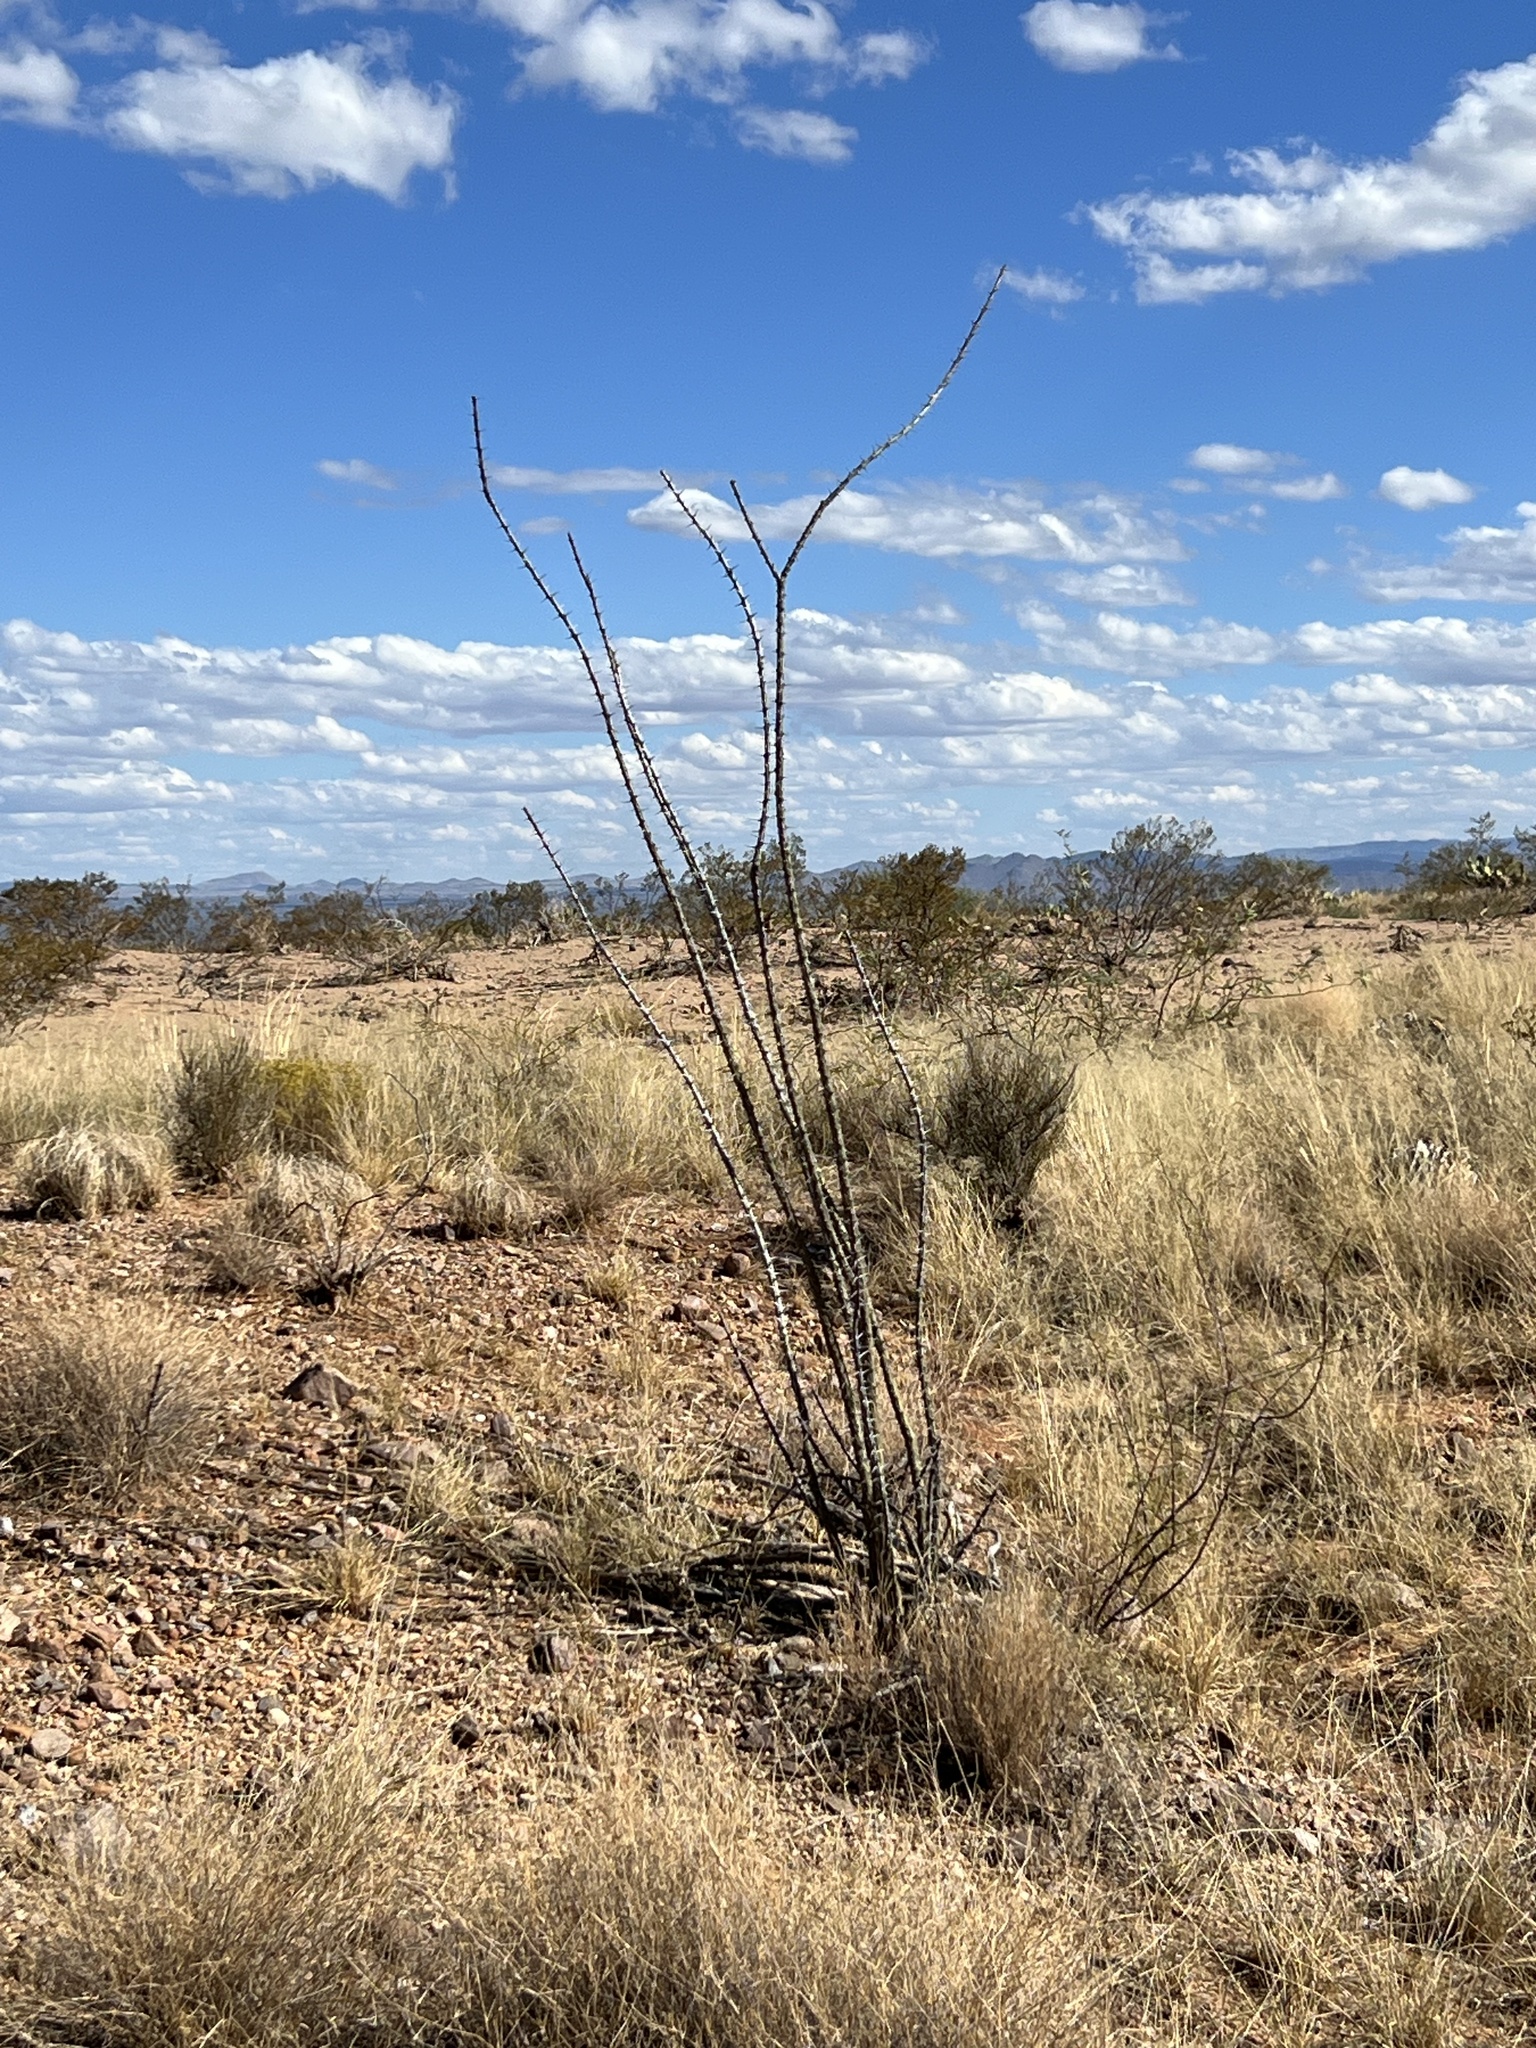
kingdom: Plantae
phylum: Tracheophyta
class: Magnoliopsida
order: Ericales
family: Fouquieriaceae
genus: Fouquieria
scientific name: Fouquieria splendens
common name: Vine-cactus
